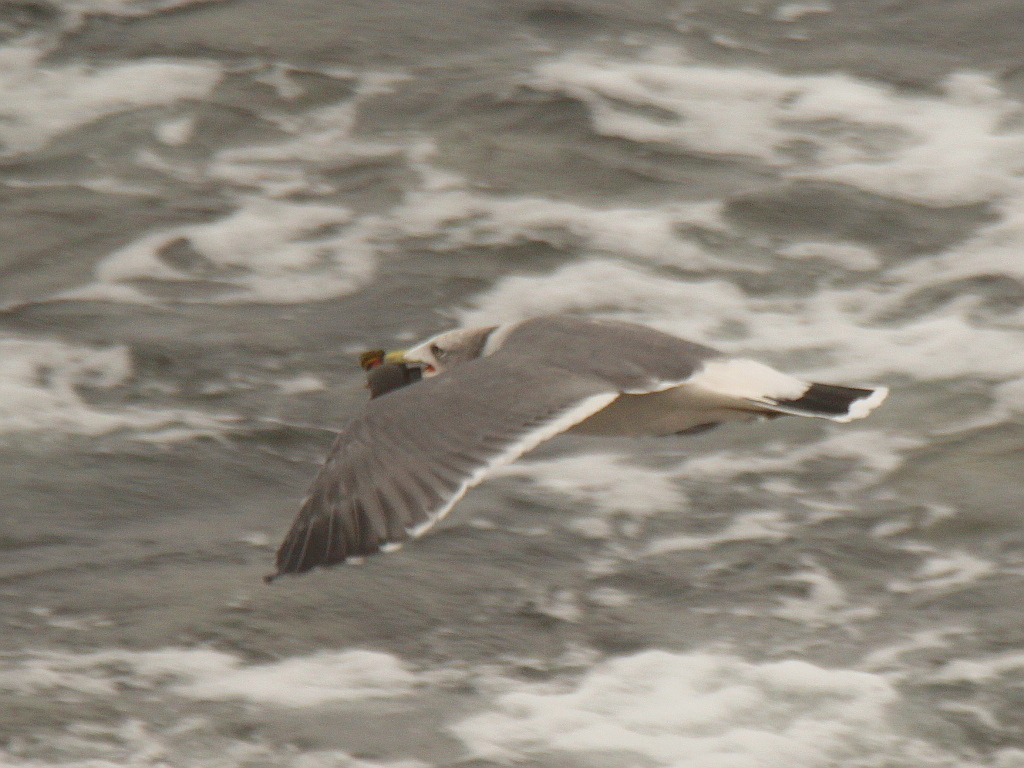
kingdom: Animalia
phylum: Chordata
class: Aves
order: Charadriiformes
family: Laridae
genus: Larus
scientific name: Larus crassirostris
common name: Black-tailed gull
